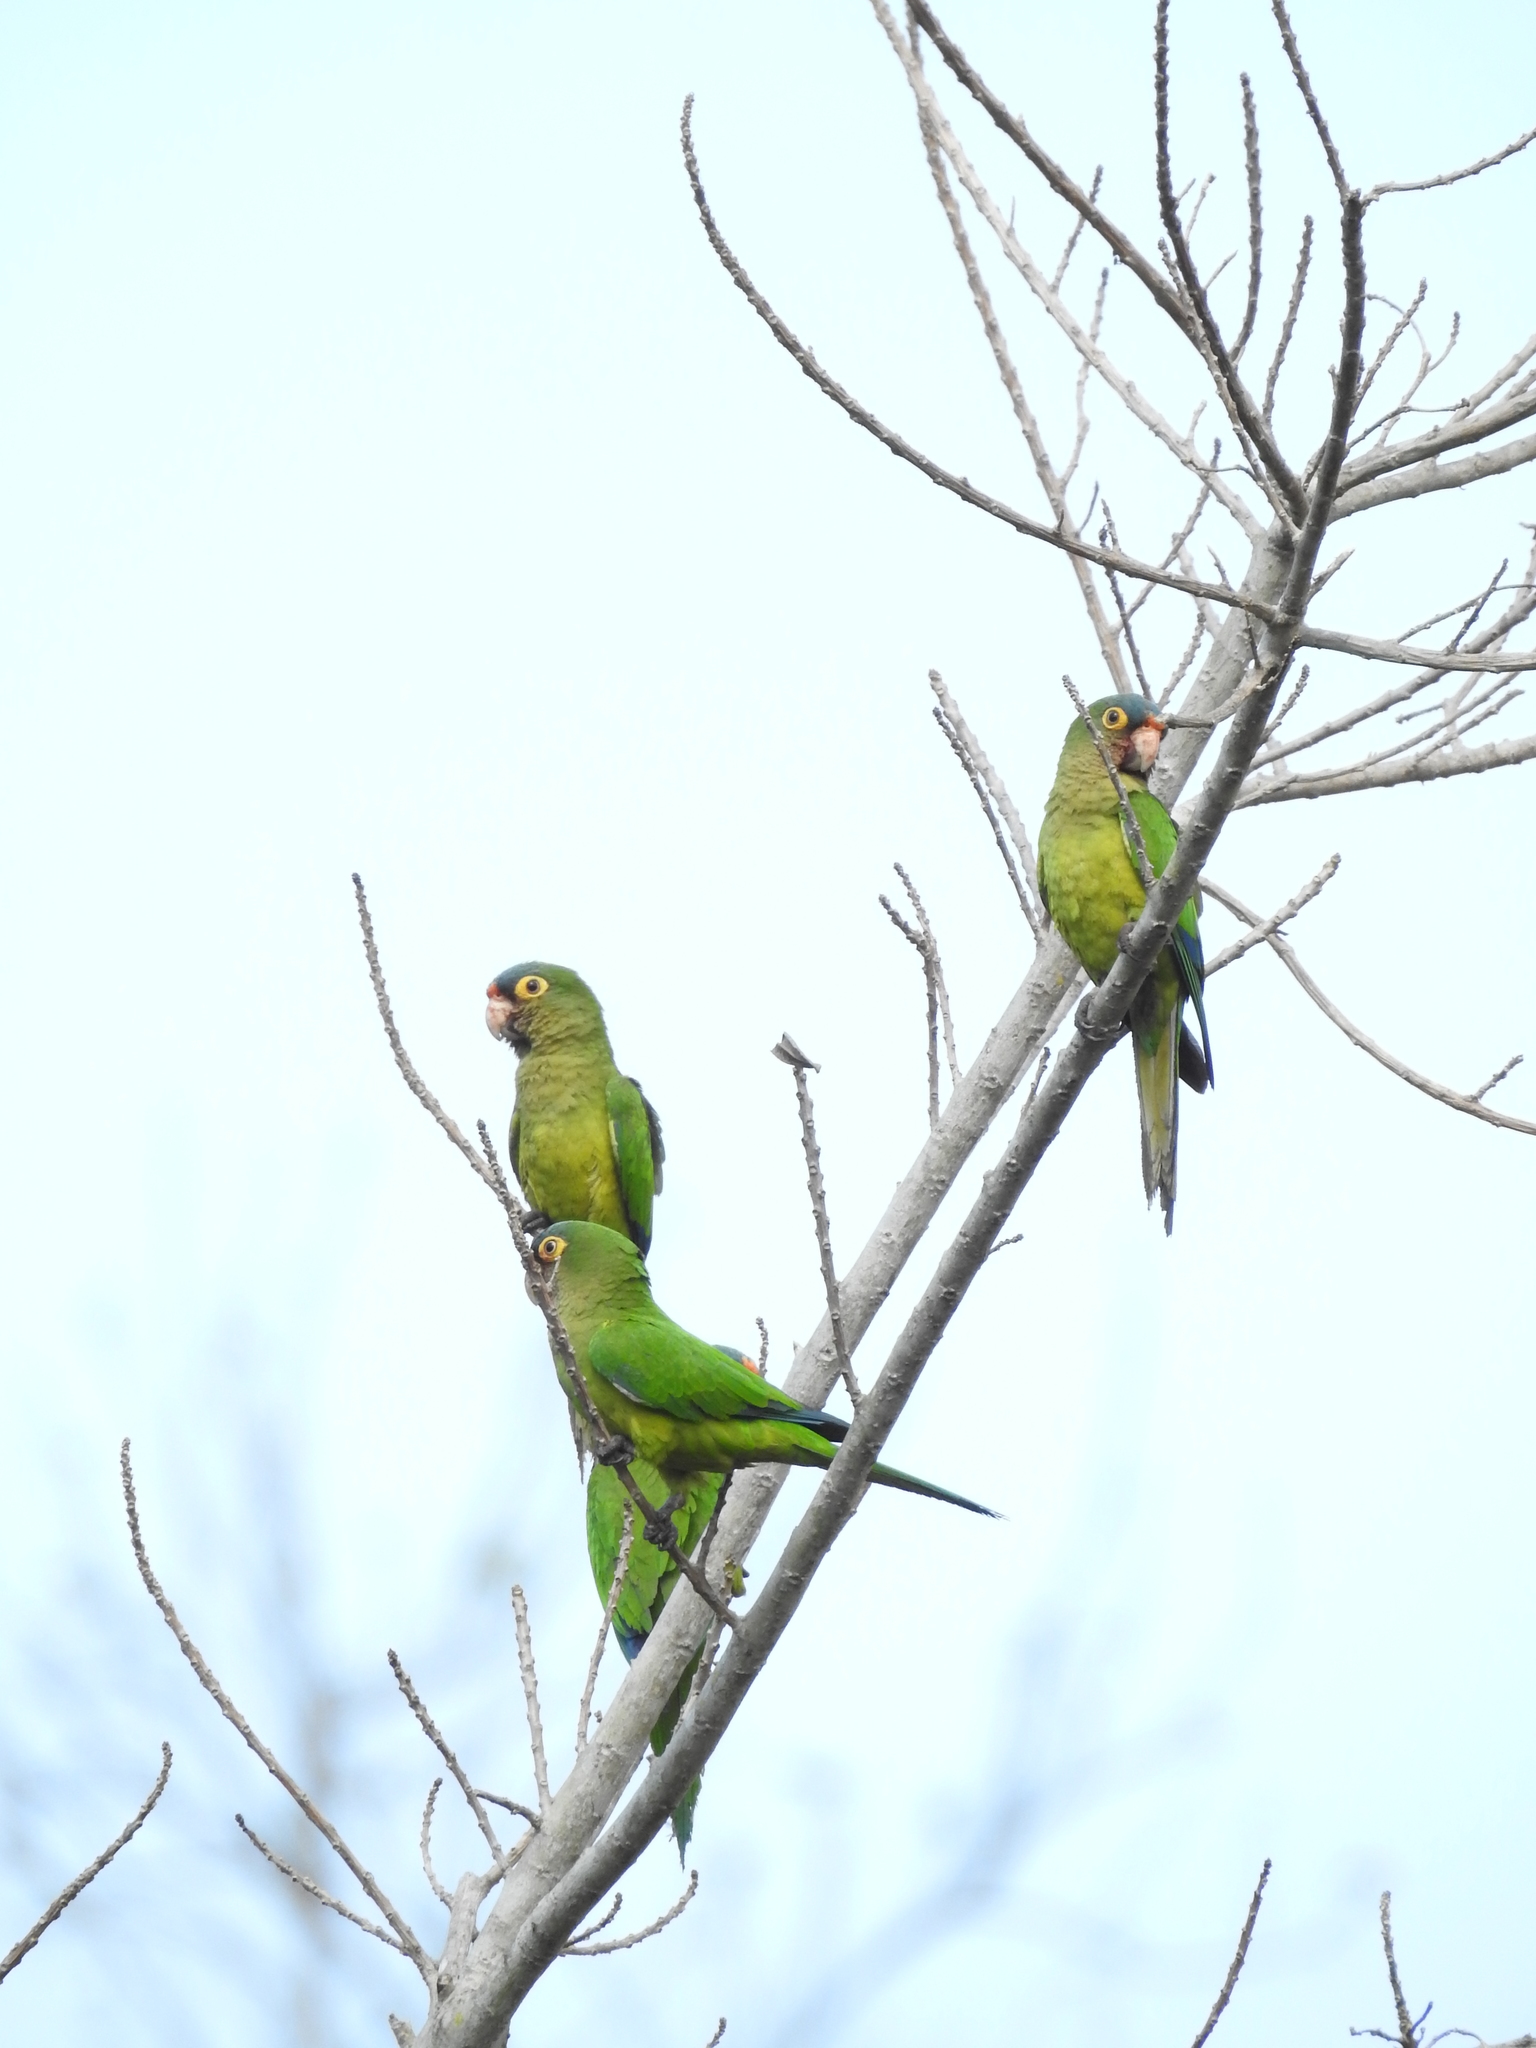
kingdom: Animalia
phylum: Chordata
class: Aves
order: Psittaciformes
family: Psittacidae
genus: Aratinga
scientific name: Aratinga canicularis
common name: Orange-fronted parakeet
